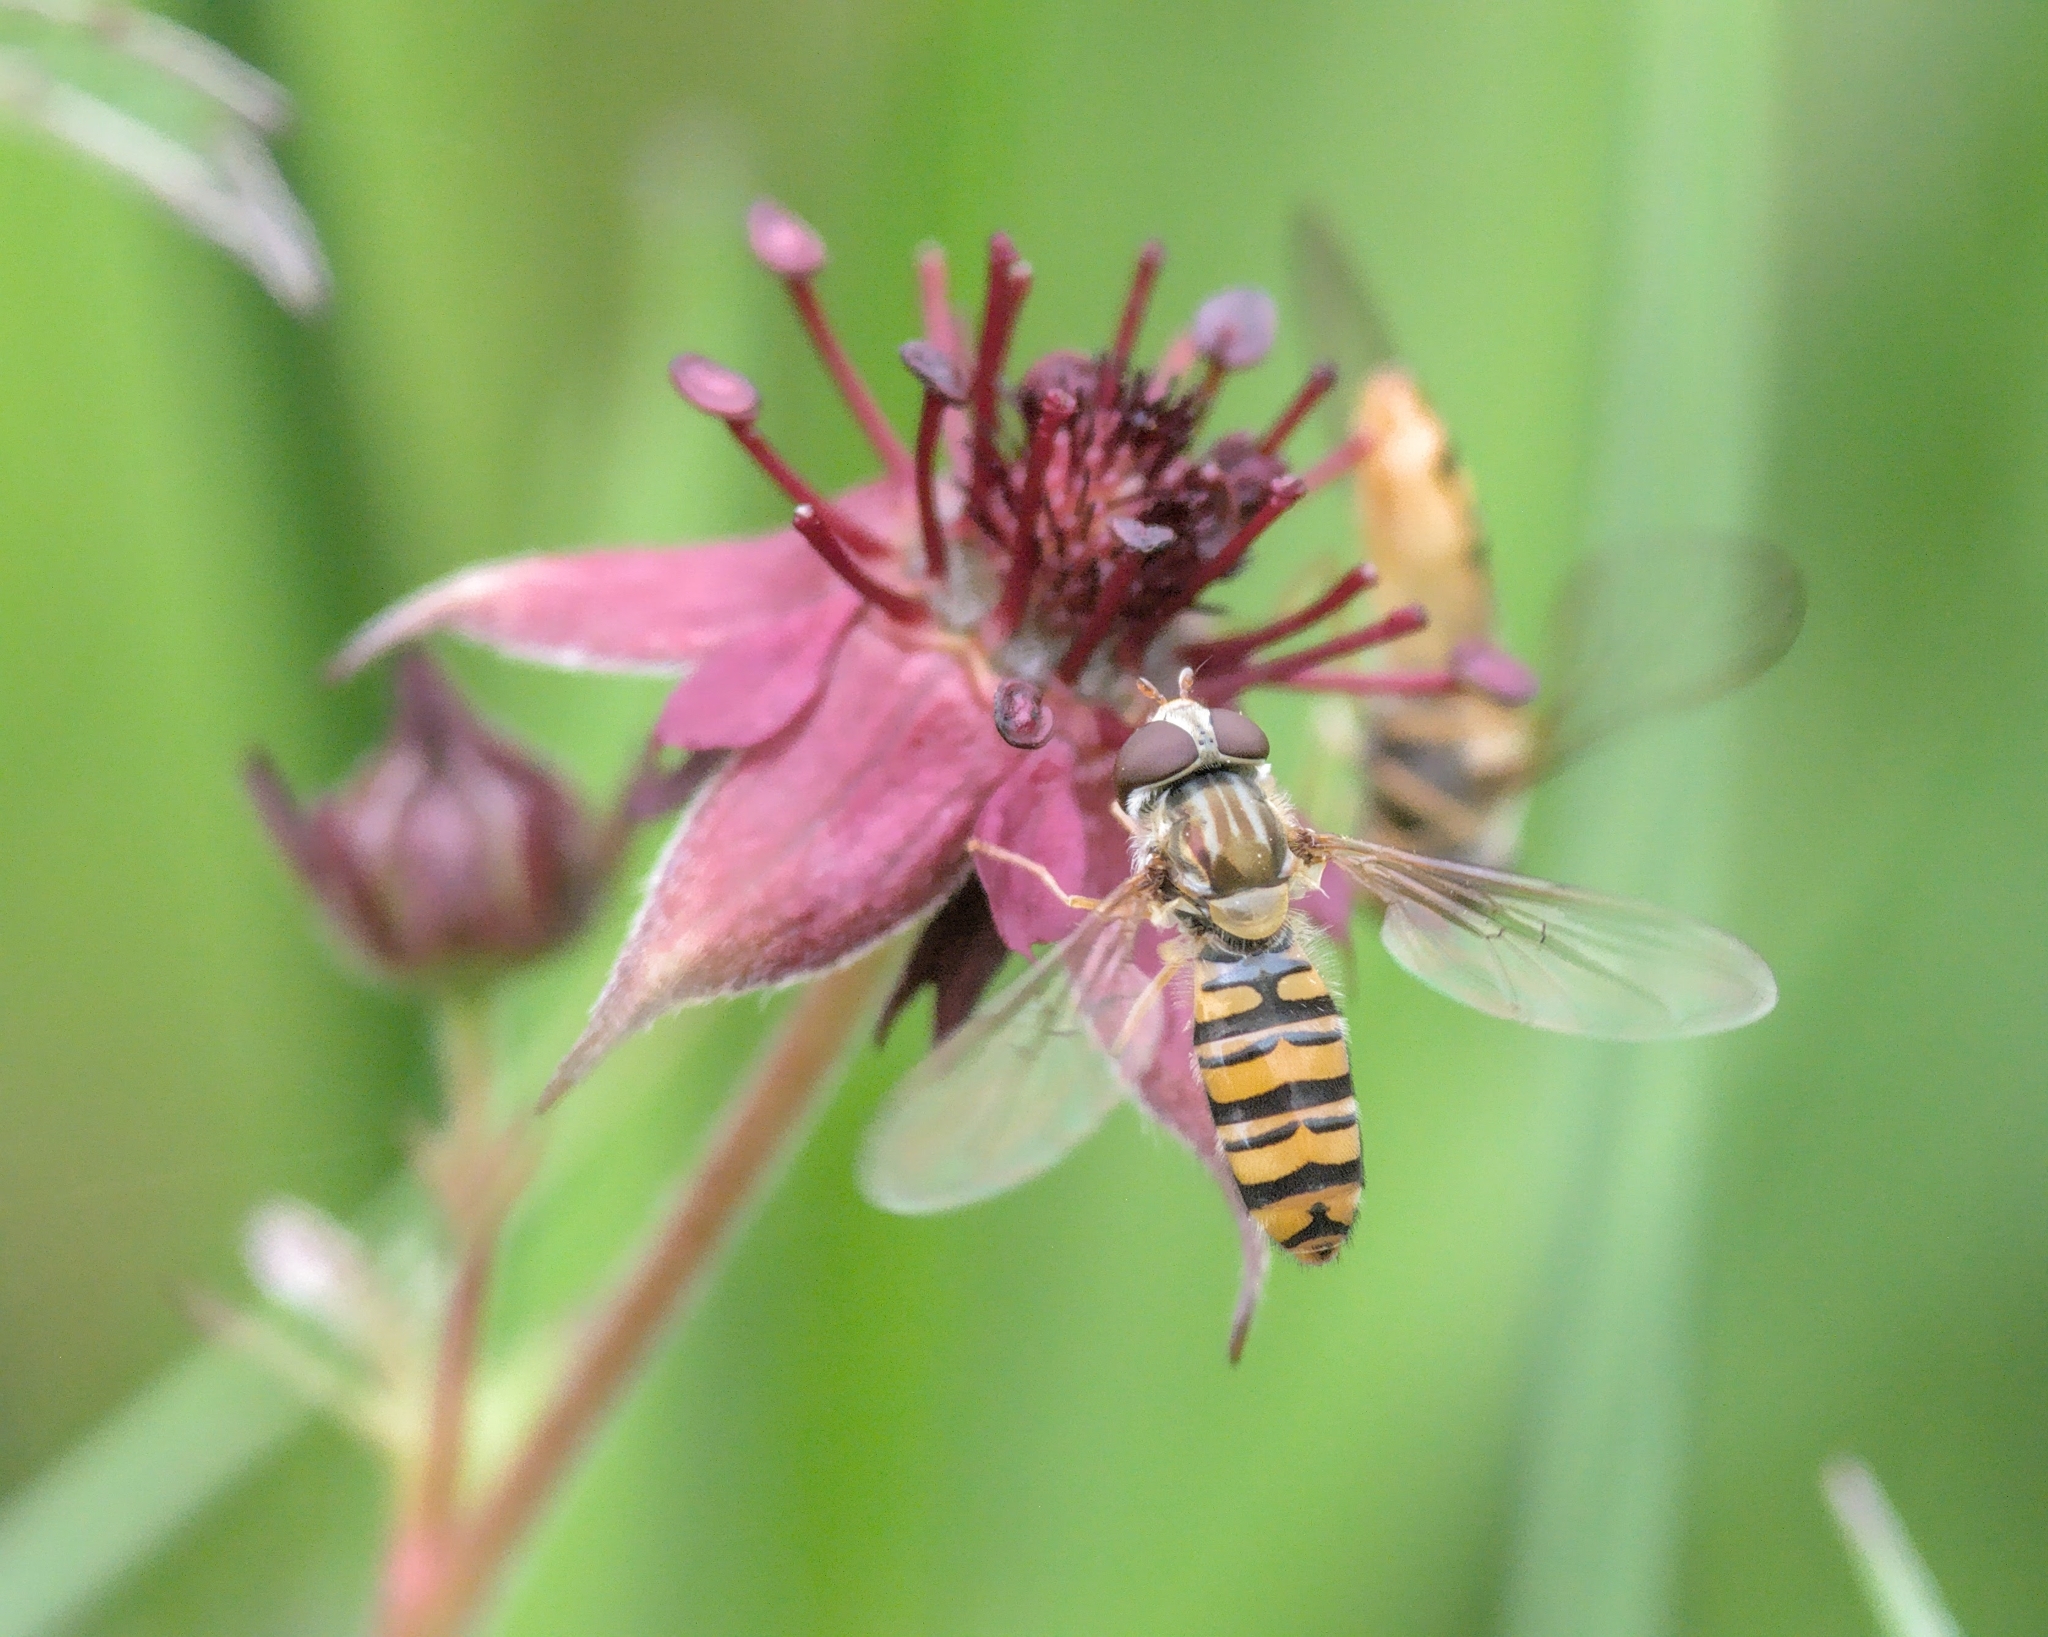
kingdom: Animalia
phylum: Arthropoda
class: Insecta
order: Diptera
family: Syrphidae
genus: Episyrphus
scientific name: Episyrphus balteatus
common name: Marmalade hoverfly
